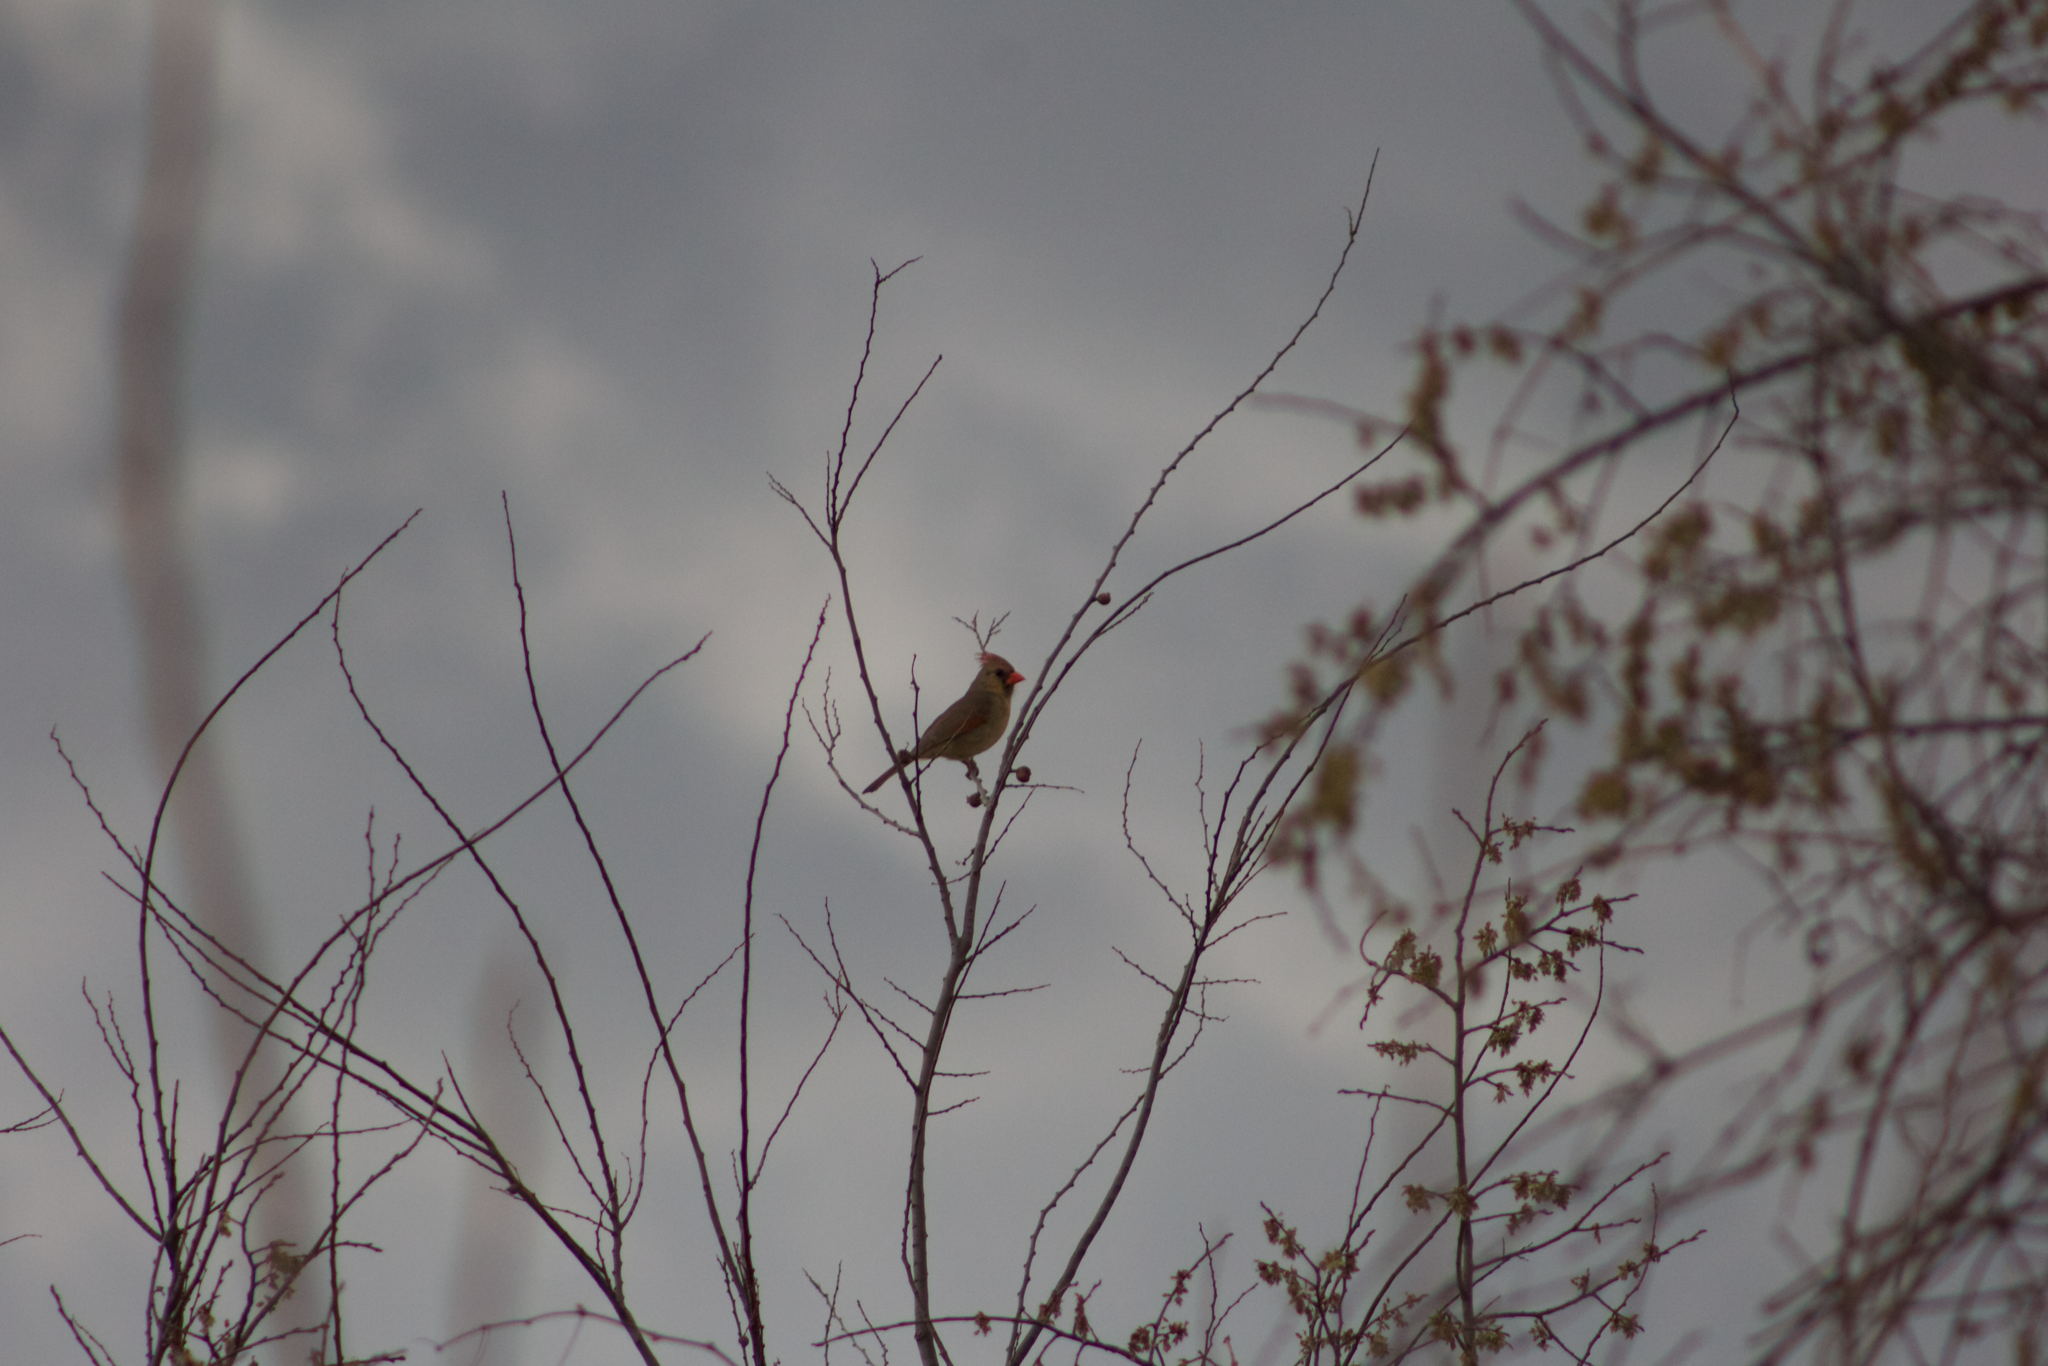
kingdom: Animalia
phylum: Chordata
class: Aves
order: Passeriformes
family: Cardinalidae
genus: Cardinalis
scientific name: Cardinalis cardinalis
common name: Northern cardinal
